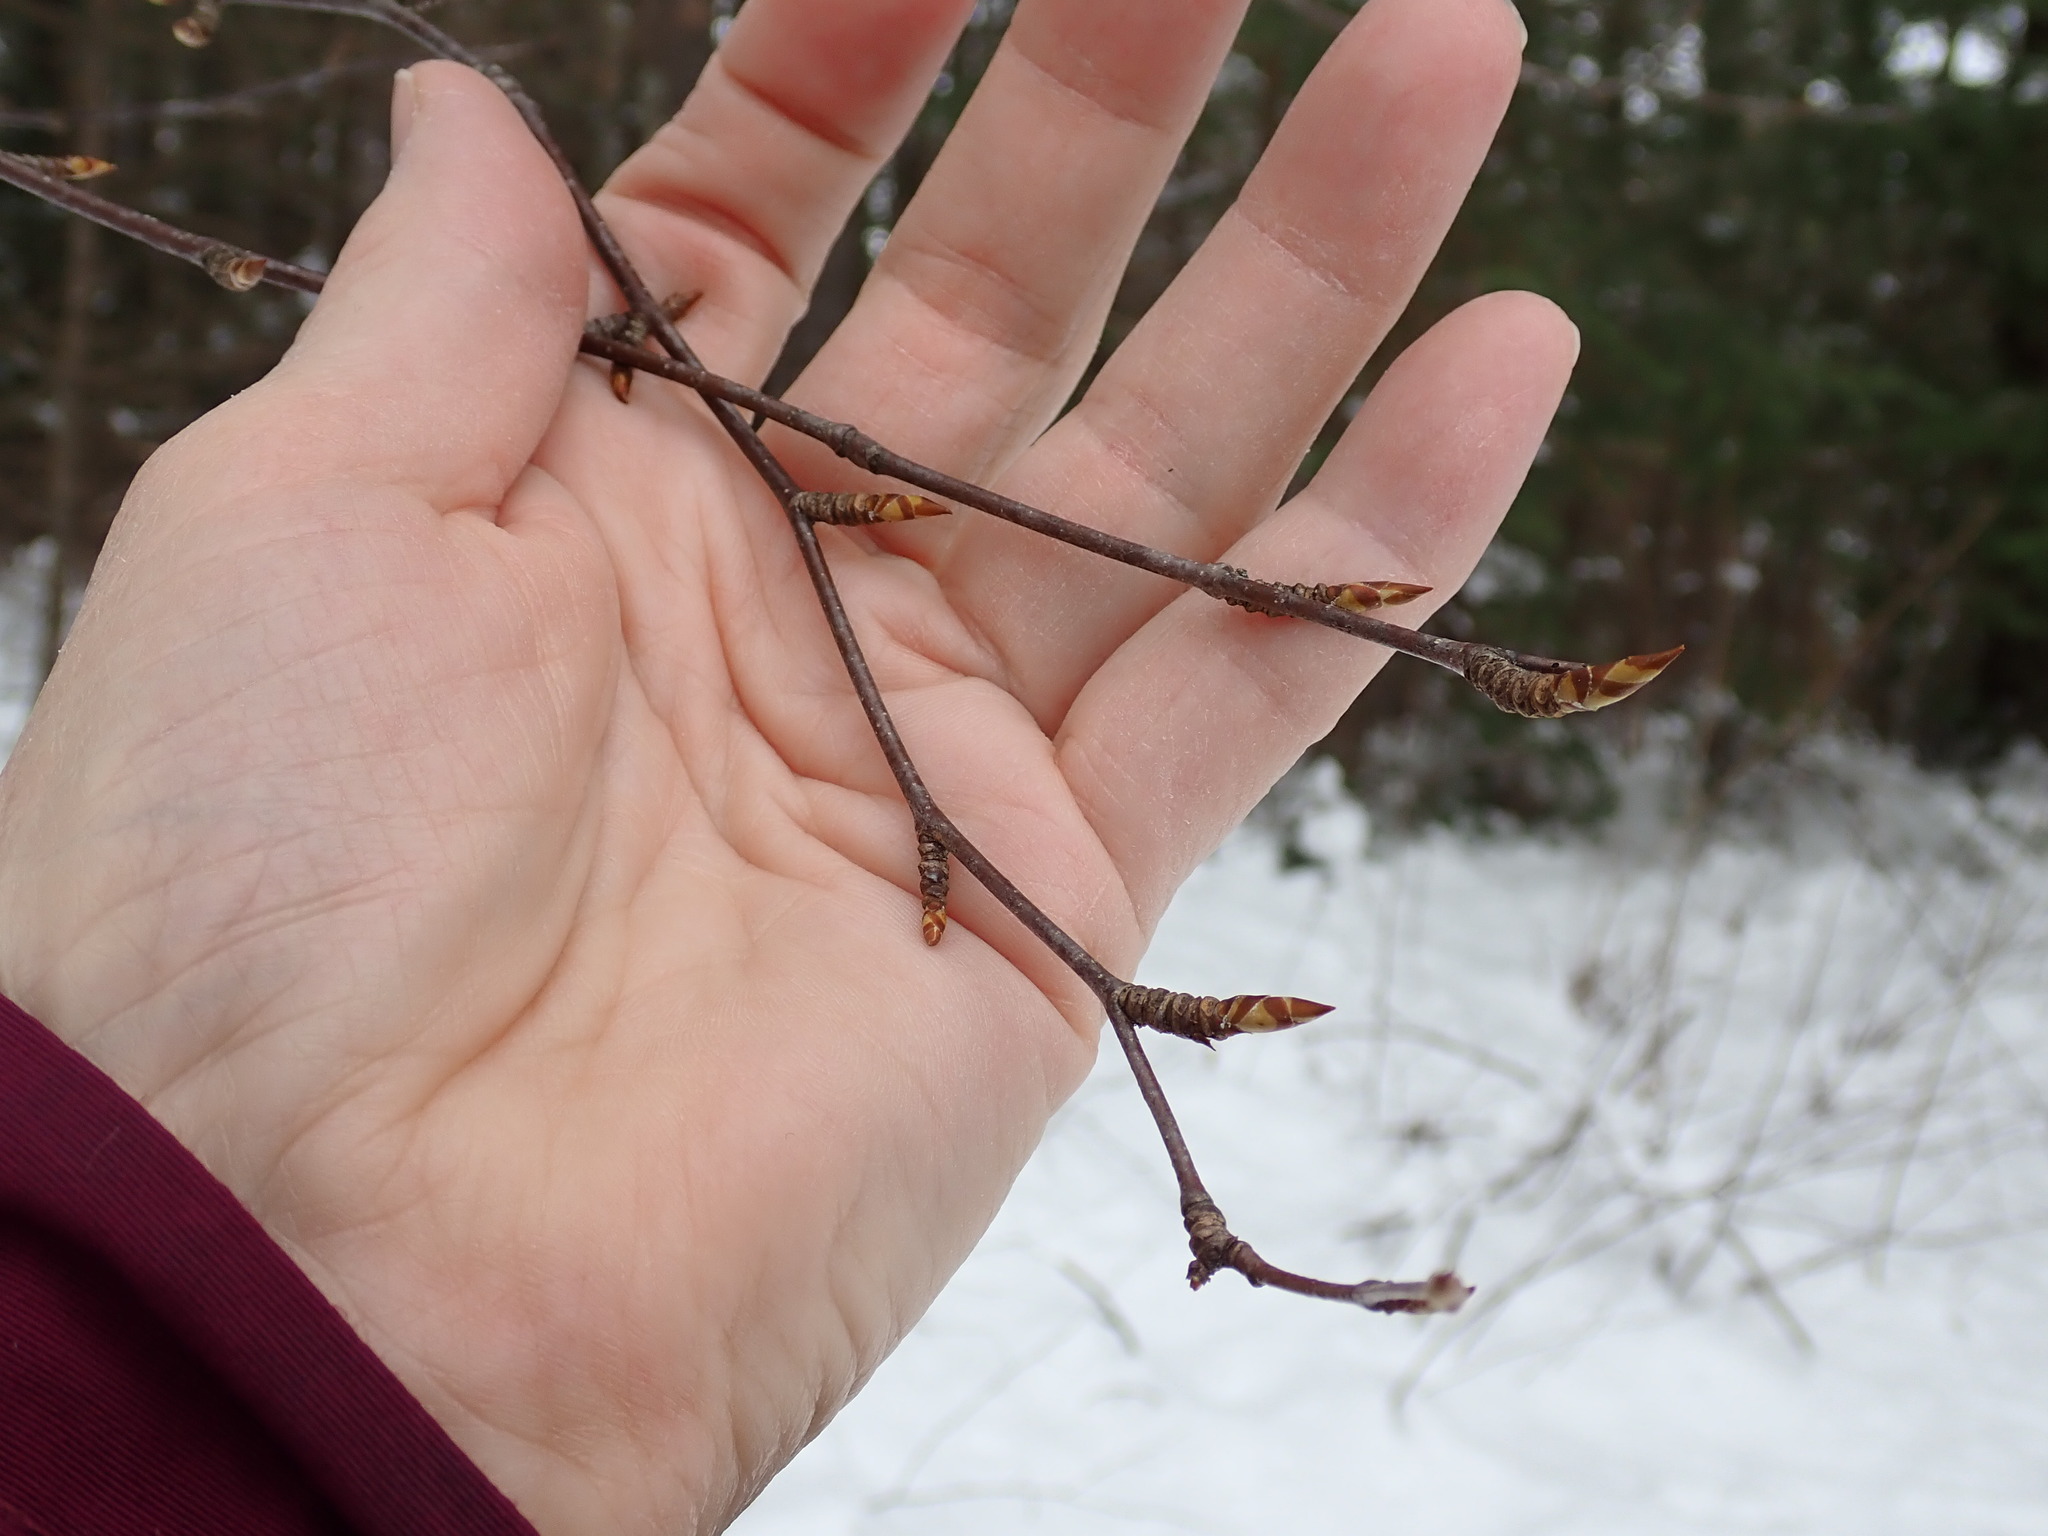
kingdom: Plantae
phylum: Tracheophyta
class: Magnoliopsida
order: Fagales
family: Betulaceae
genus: Betula
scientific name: Betula lenta
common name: Black birch
